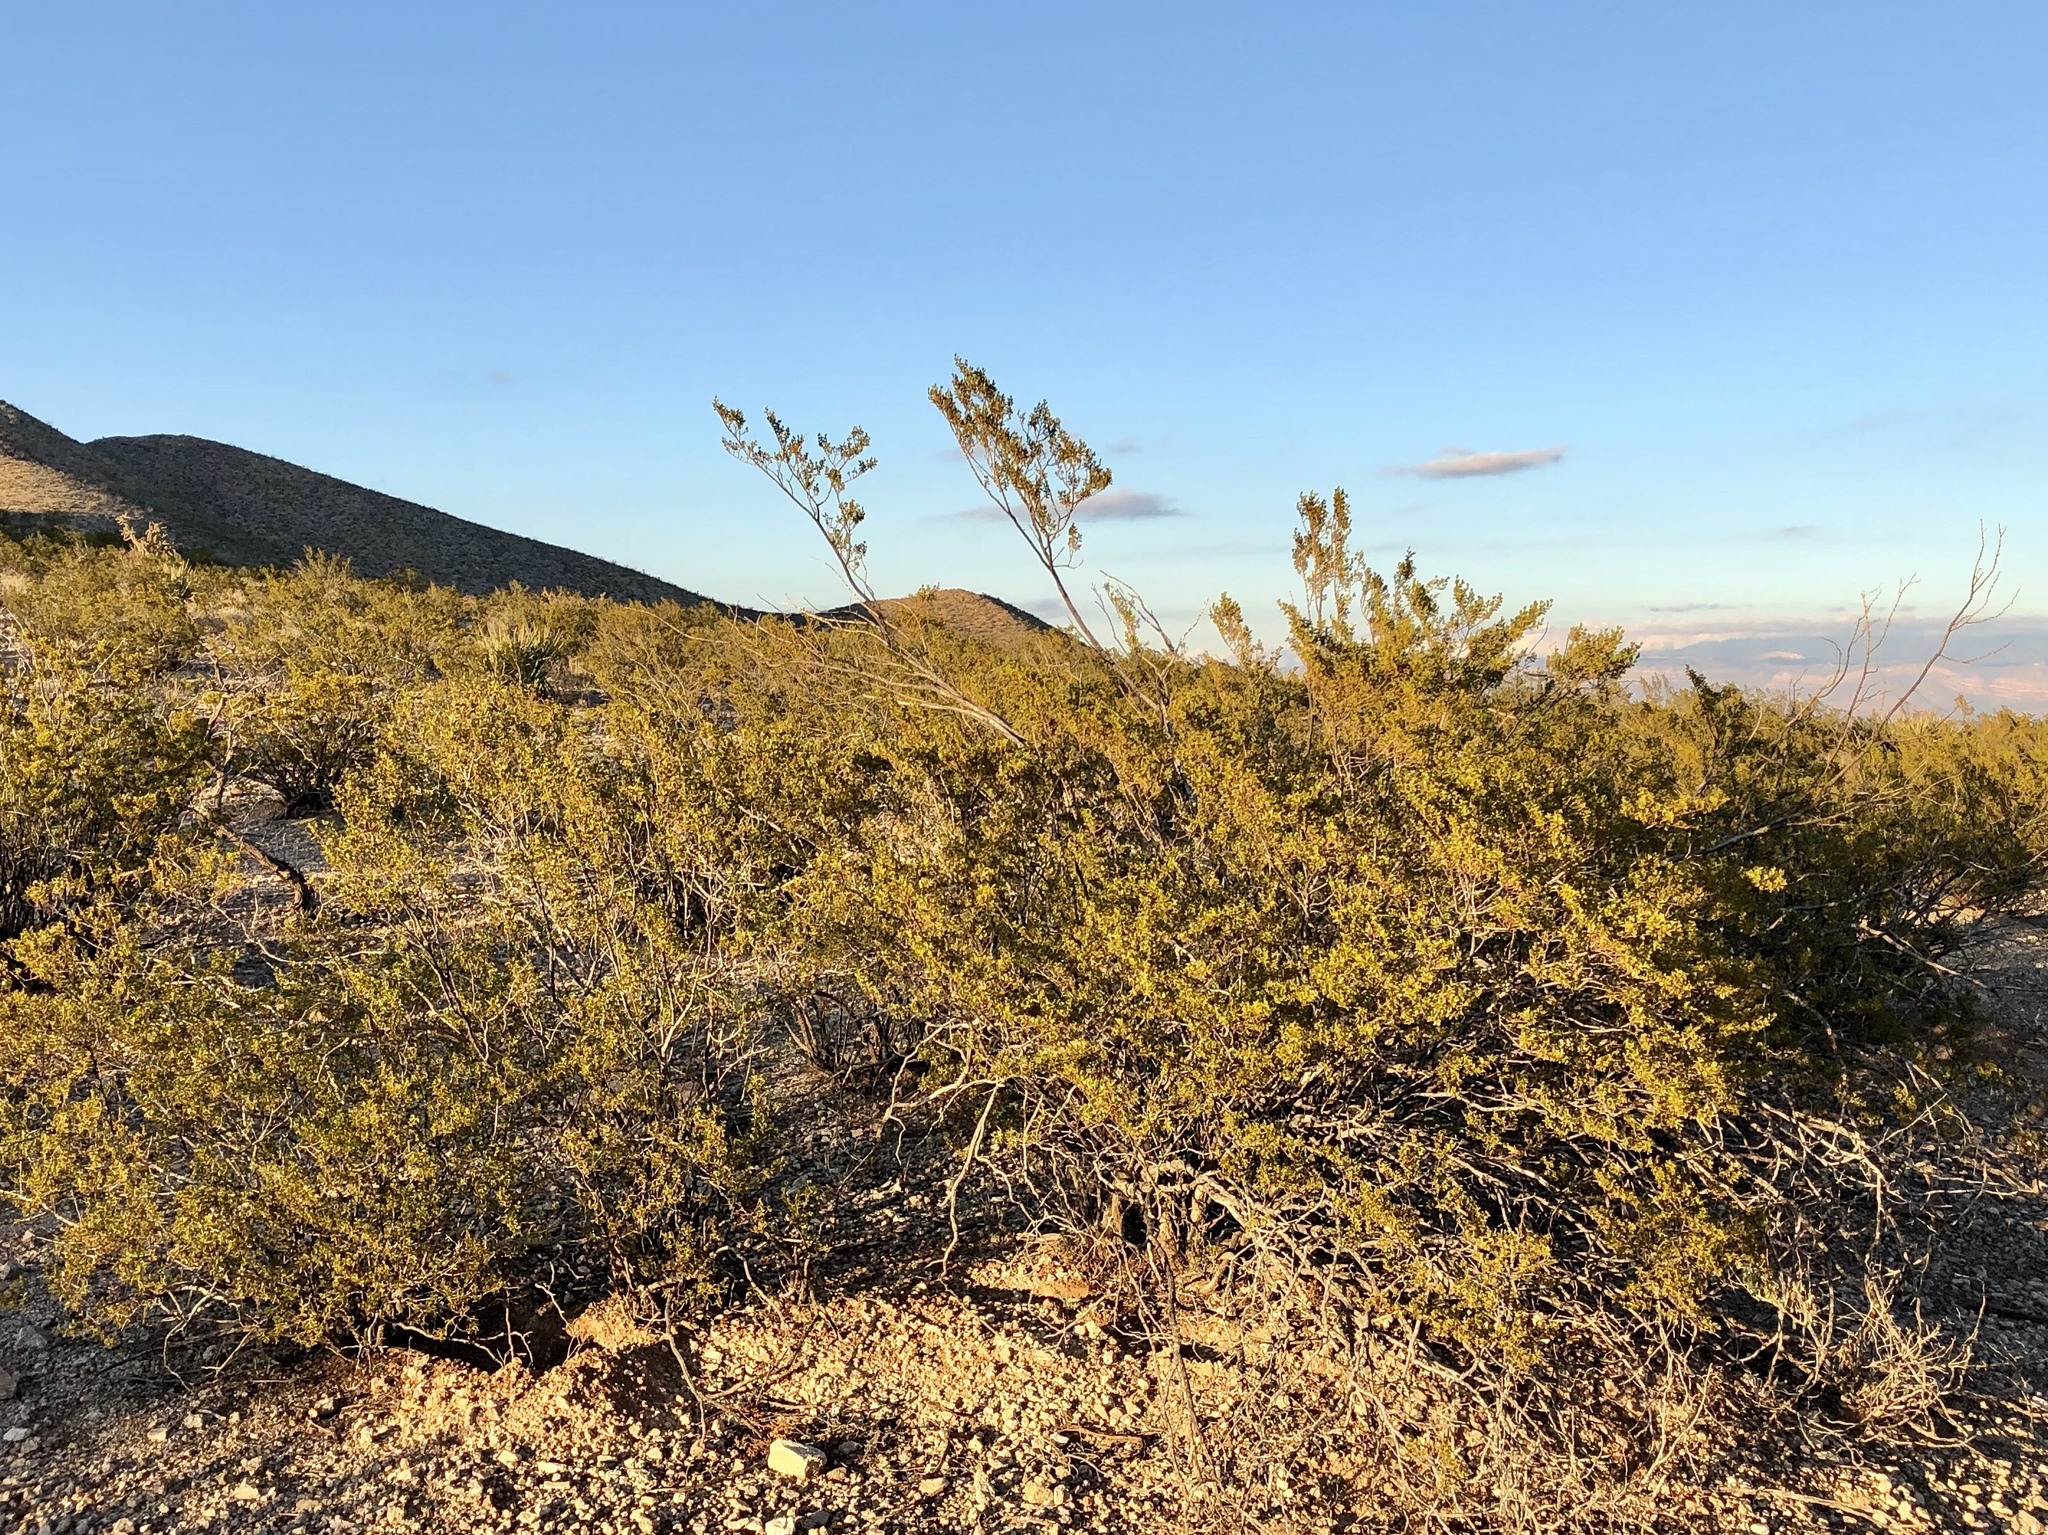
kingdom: Plantae
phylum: Tracheophyta
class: Magnoliopsida
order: Zygophyllales
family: Zygophyllaceae
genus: Larrea
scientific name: Larrea tridentata
